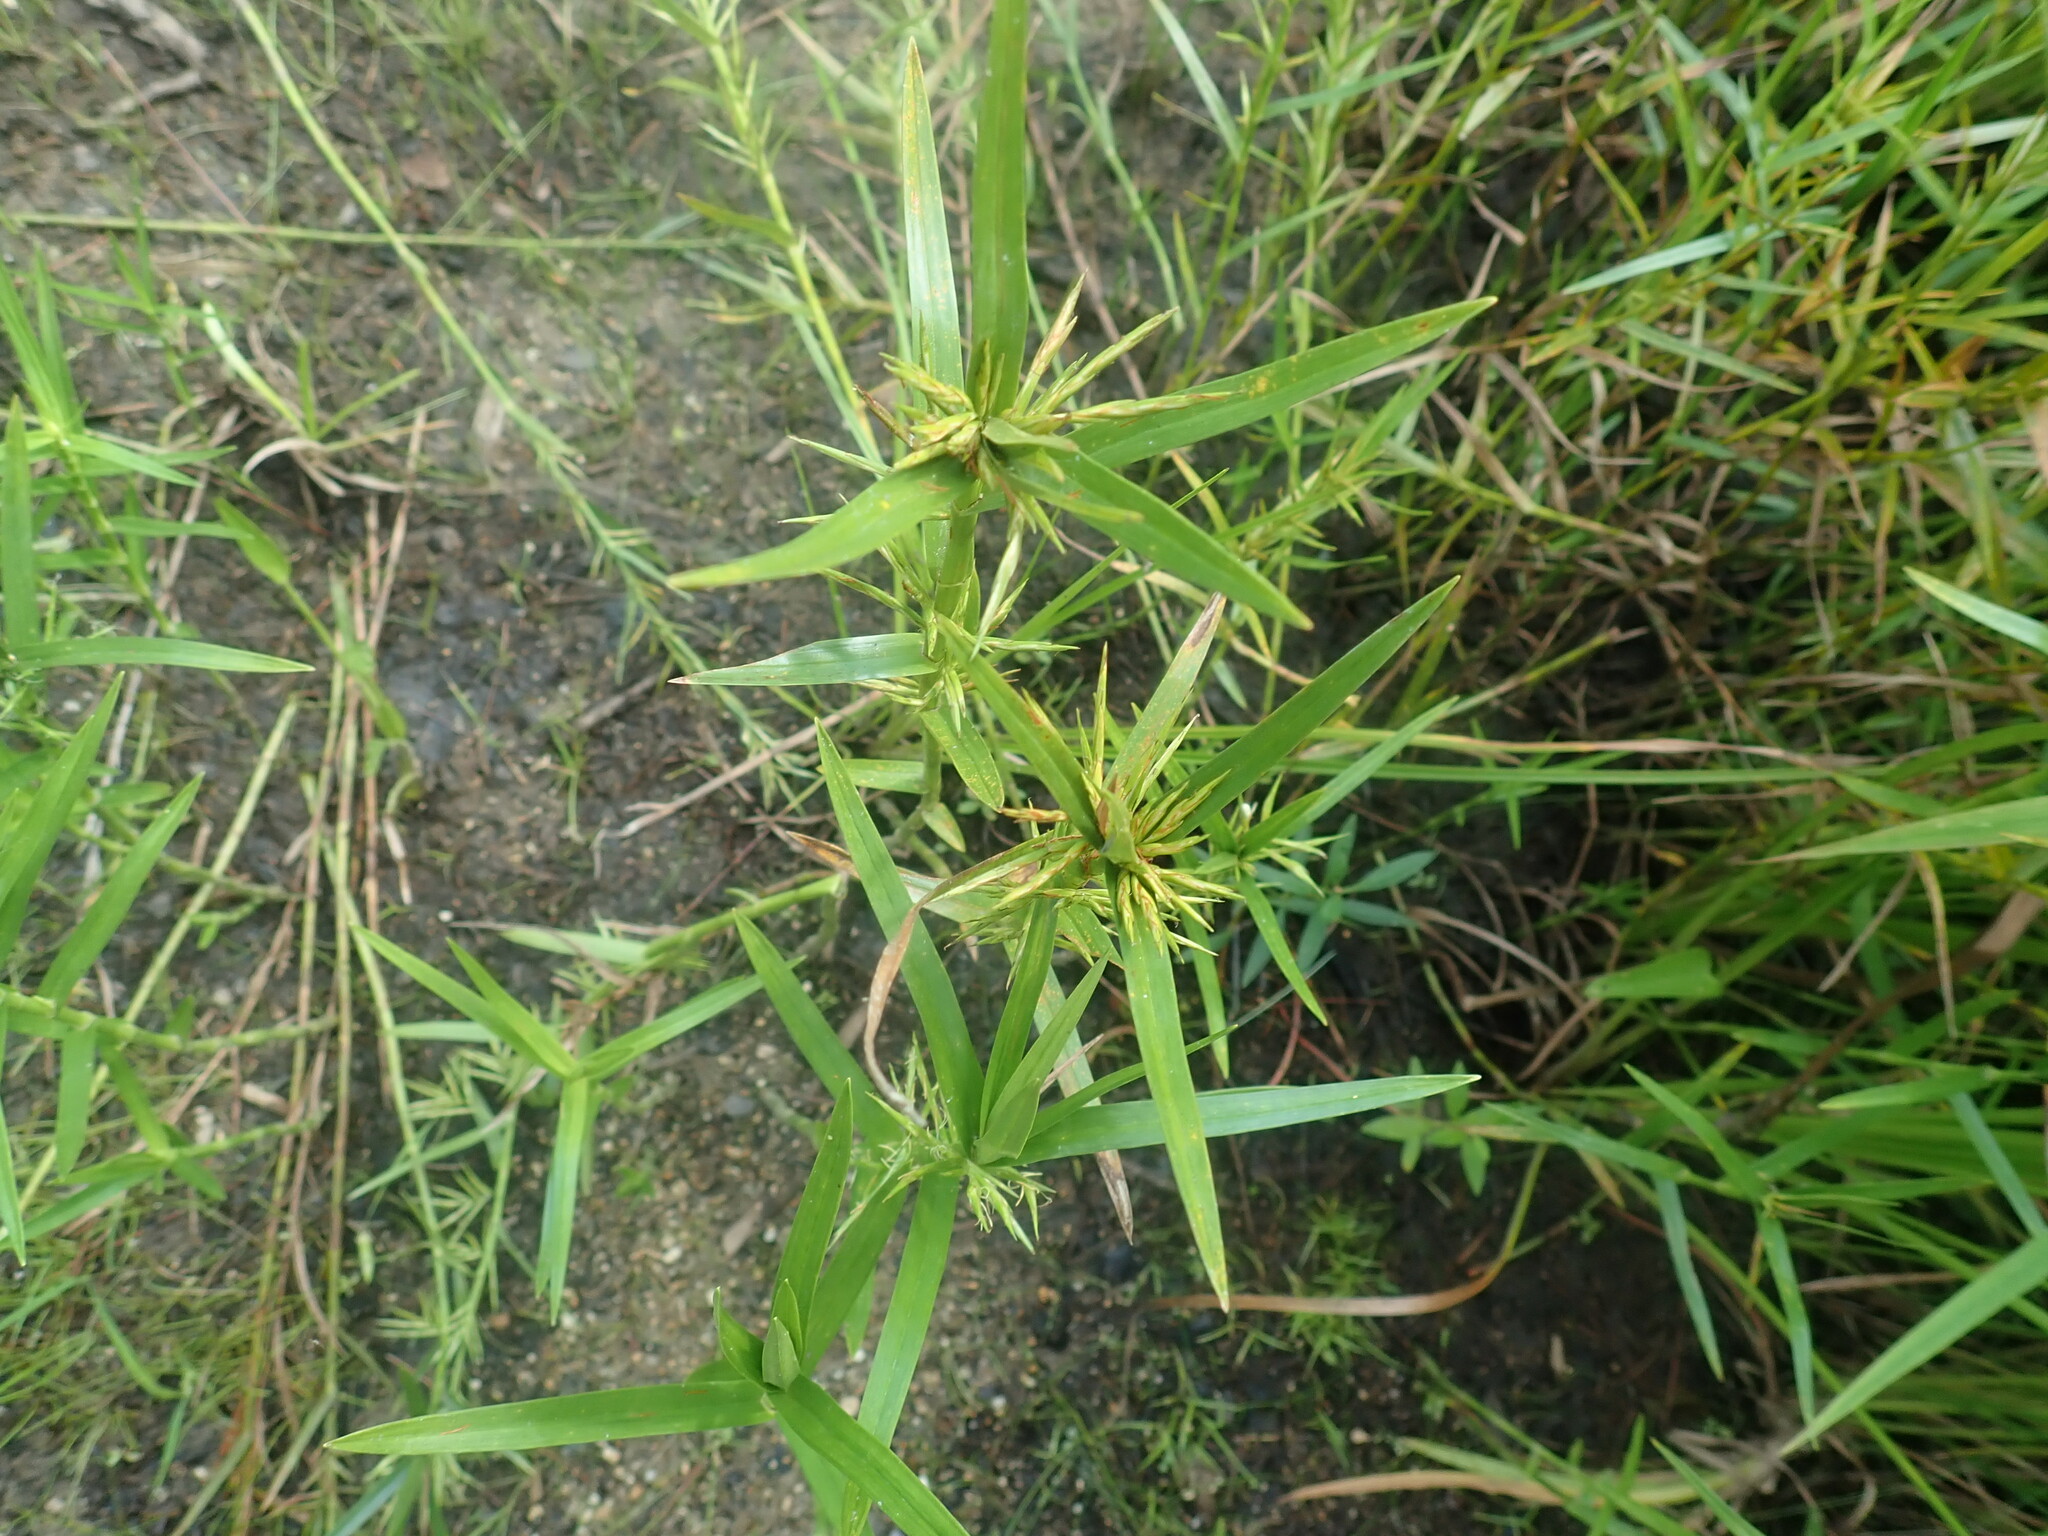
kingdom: Plantae
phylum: Tracheophyta
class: Liliopsida
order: Poales
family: Cyperaceae
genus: Dulichium
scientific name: Dulichium arundinaceum
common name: Three-way sedge
